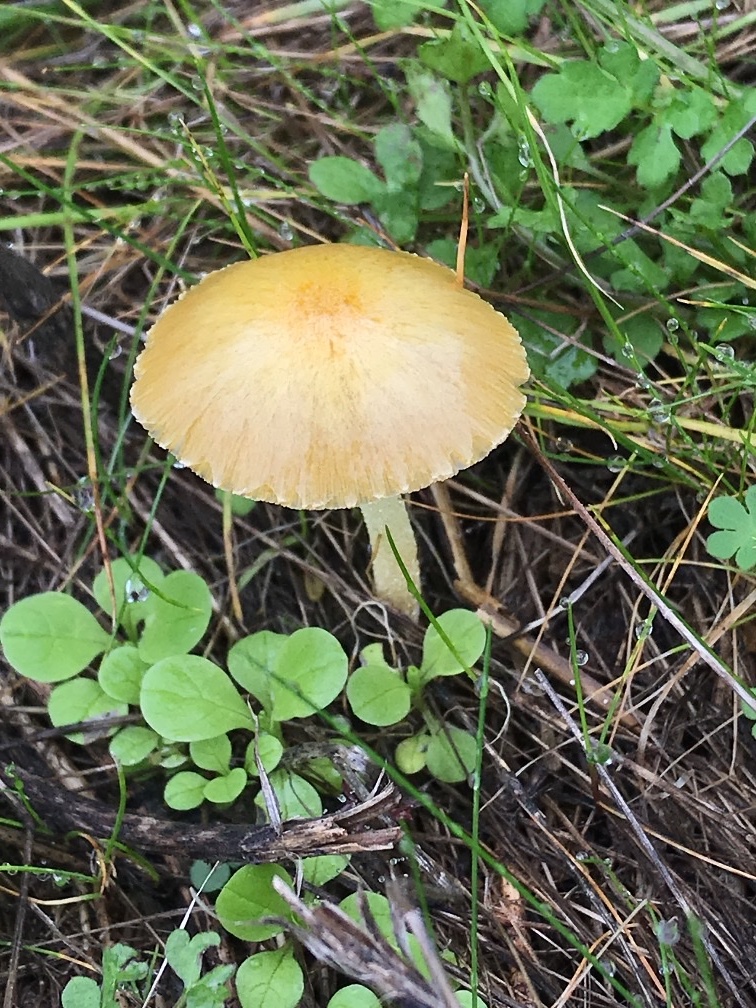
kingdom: Fungi
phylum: Basidiomycota
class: Agaricomycetes
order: Agaricales
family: Bolbitiaceae
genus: Bolbitius
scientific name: Bolbitius titubans
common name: Yellow fieldcap
